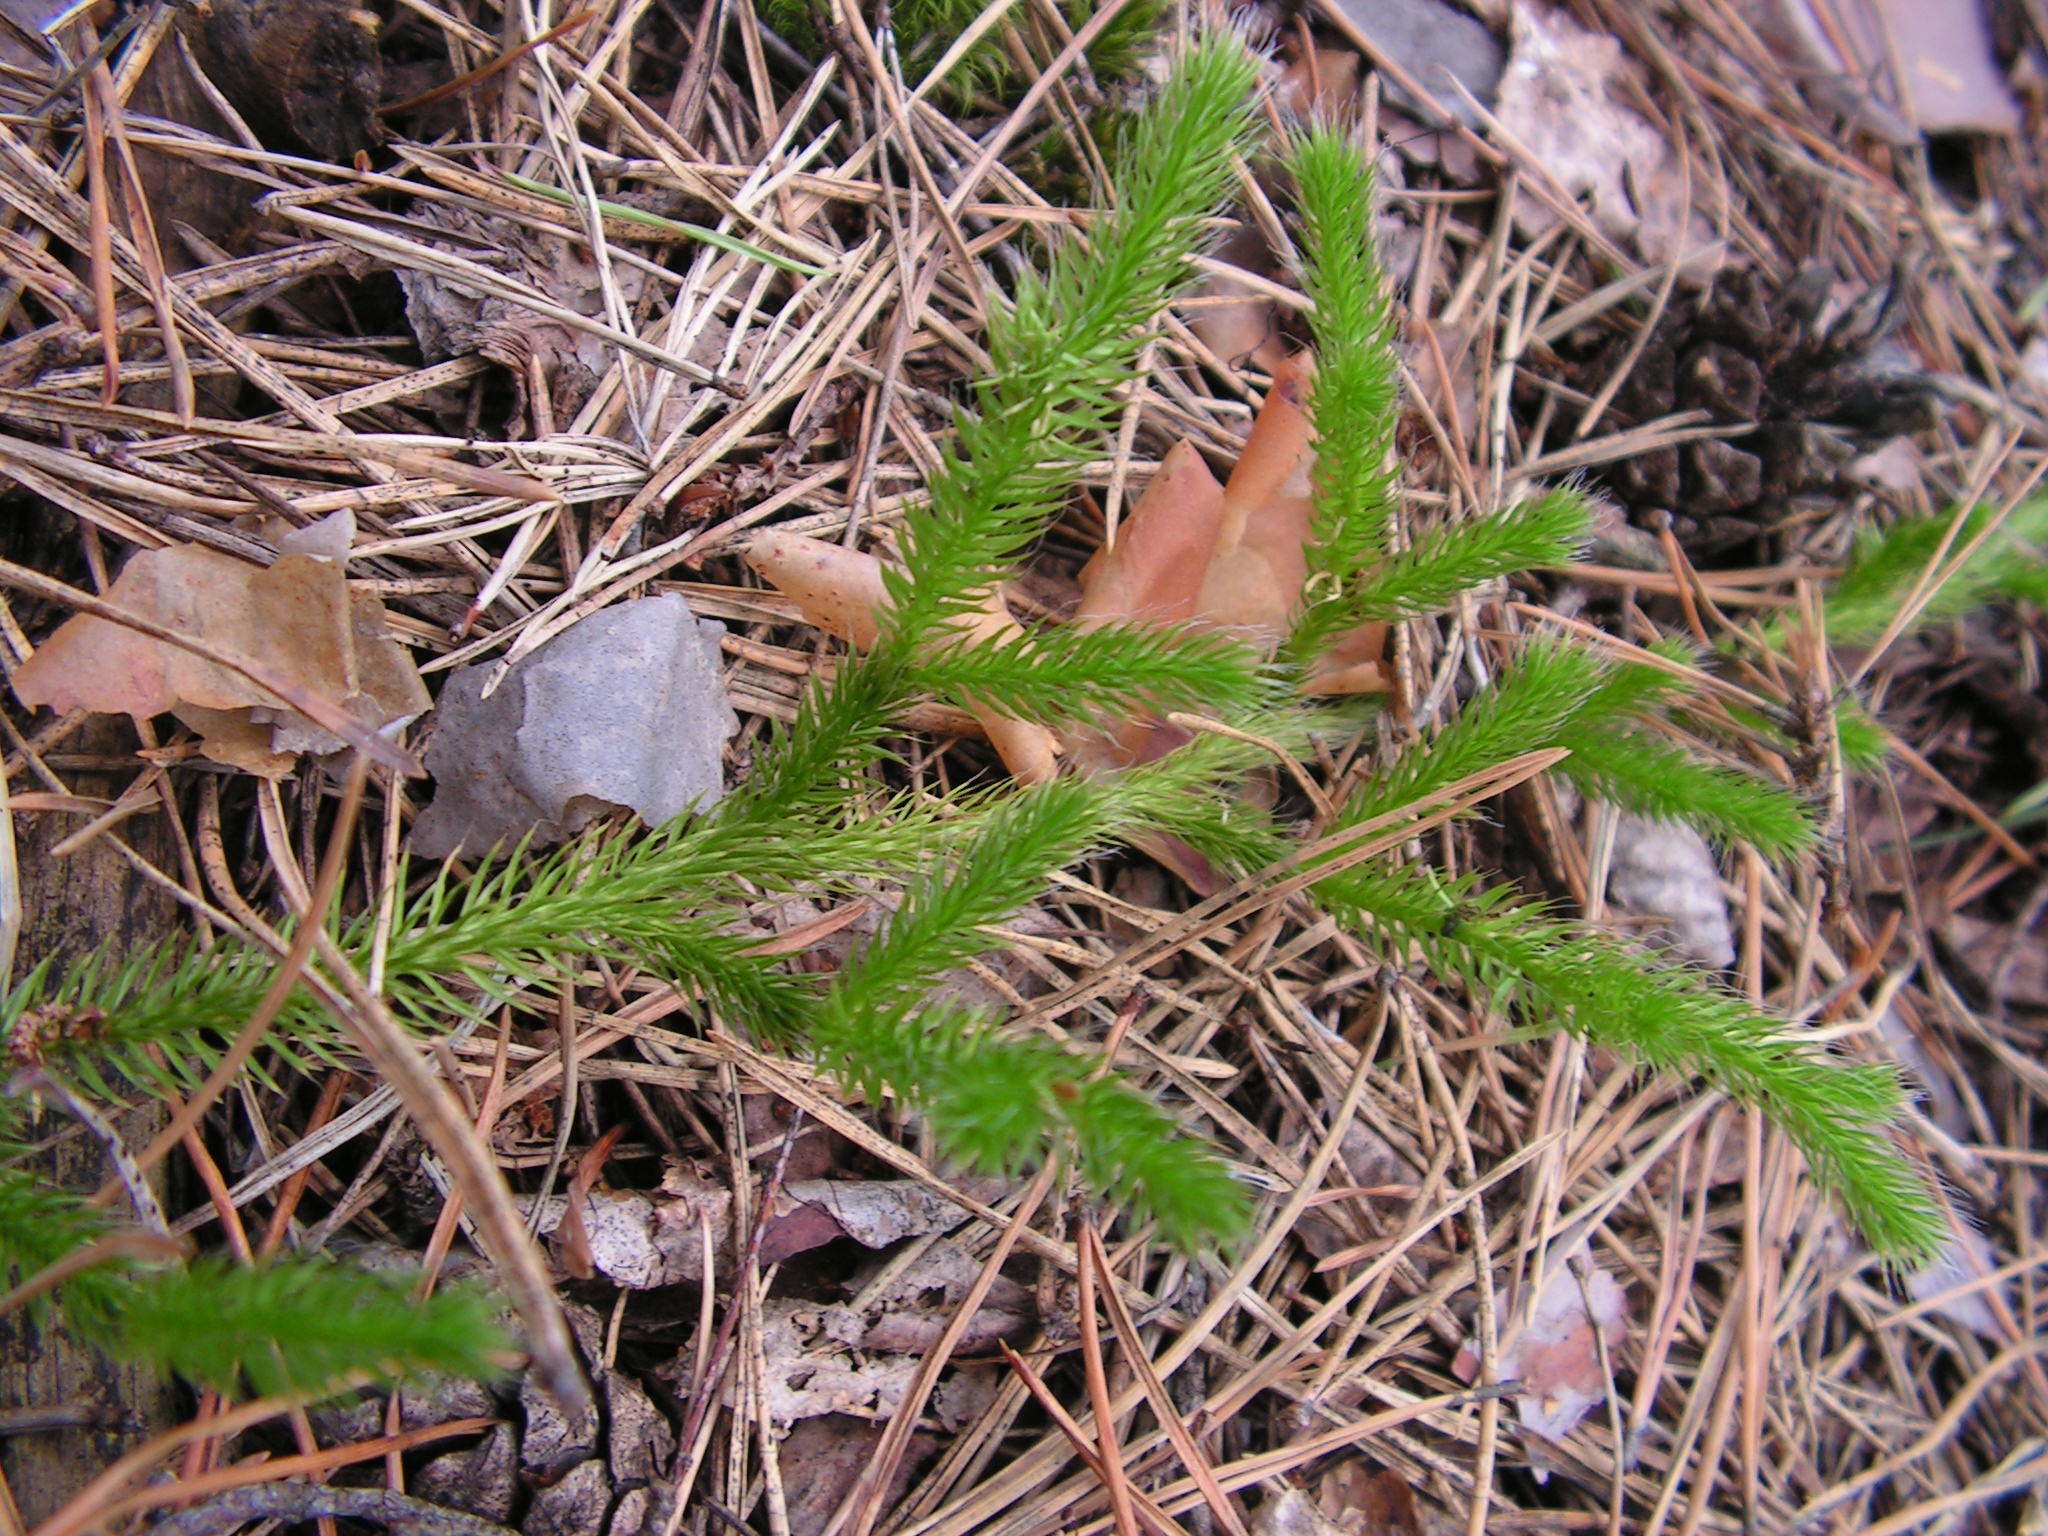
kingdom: Plantae
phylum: Tracheophyta
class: Lycopodiopsida
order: Lycopodiales
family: Lycopodiaceae
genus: Lycopodium
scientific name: Lycopodium clavatum
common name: Stag's-horn clubmoss
